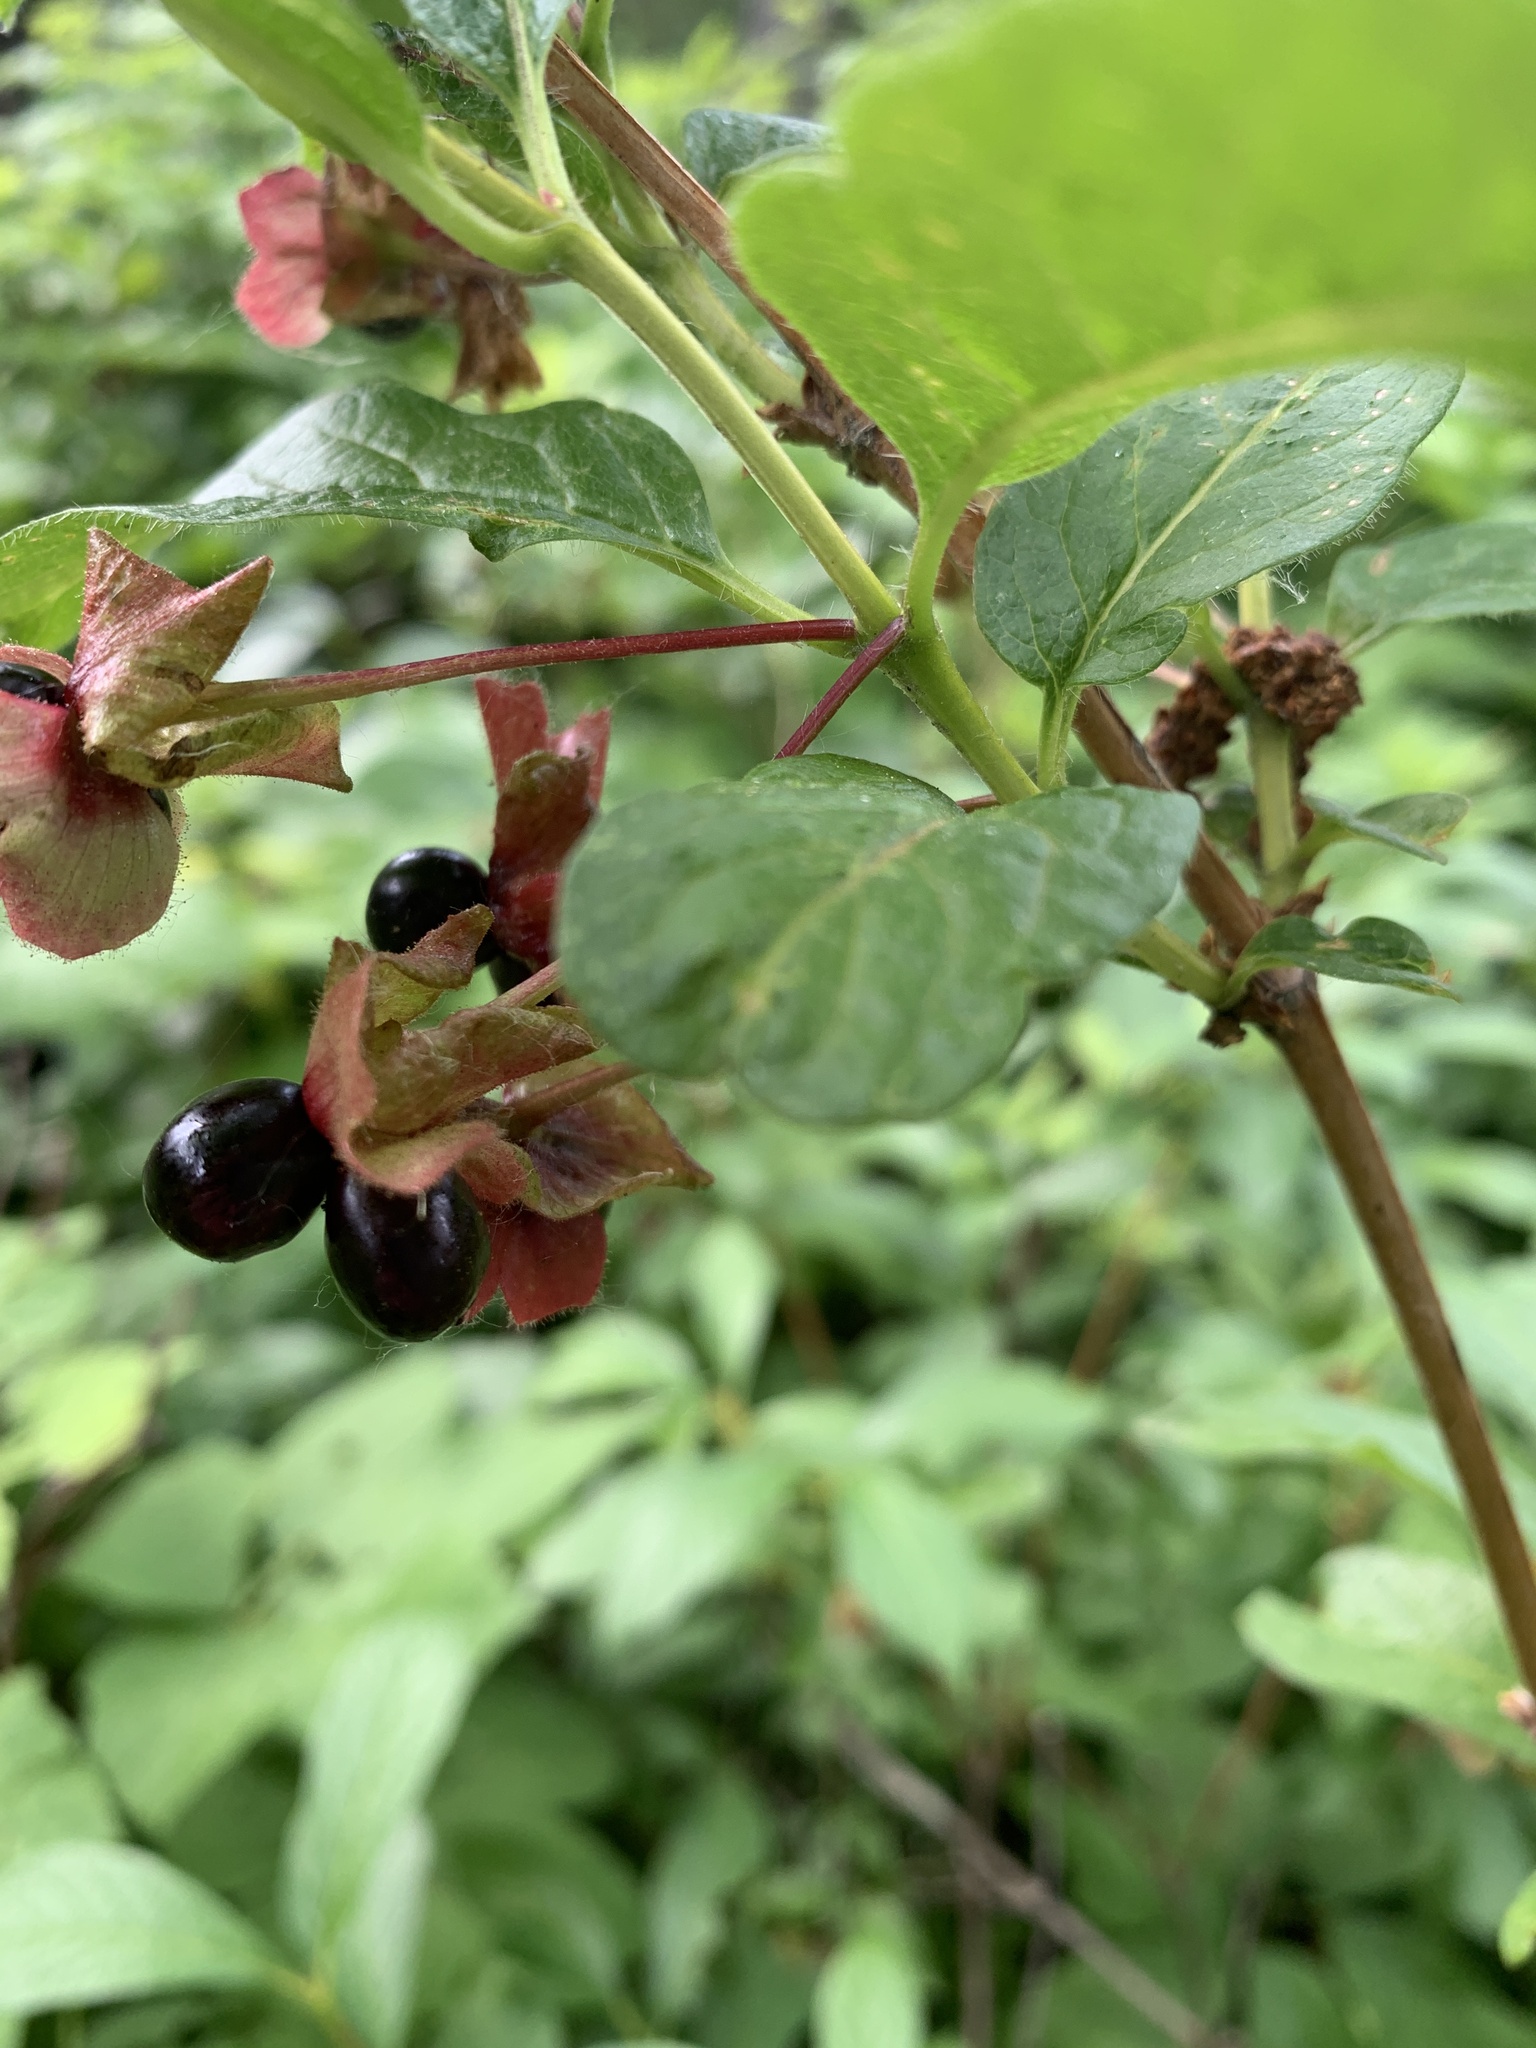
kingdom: Plantae
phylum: Tracheophyta
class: Magnoliopsida
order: Dipsacales
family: Caprifoliaceae
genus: Lonicera
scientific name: Lonicera involucrata
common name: Californian honeysuckle
